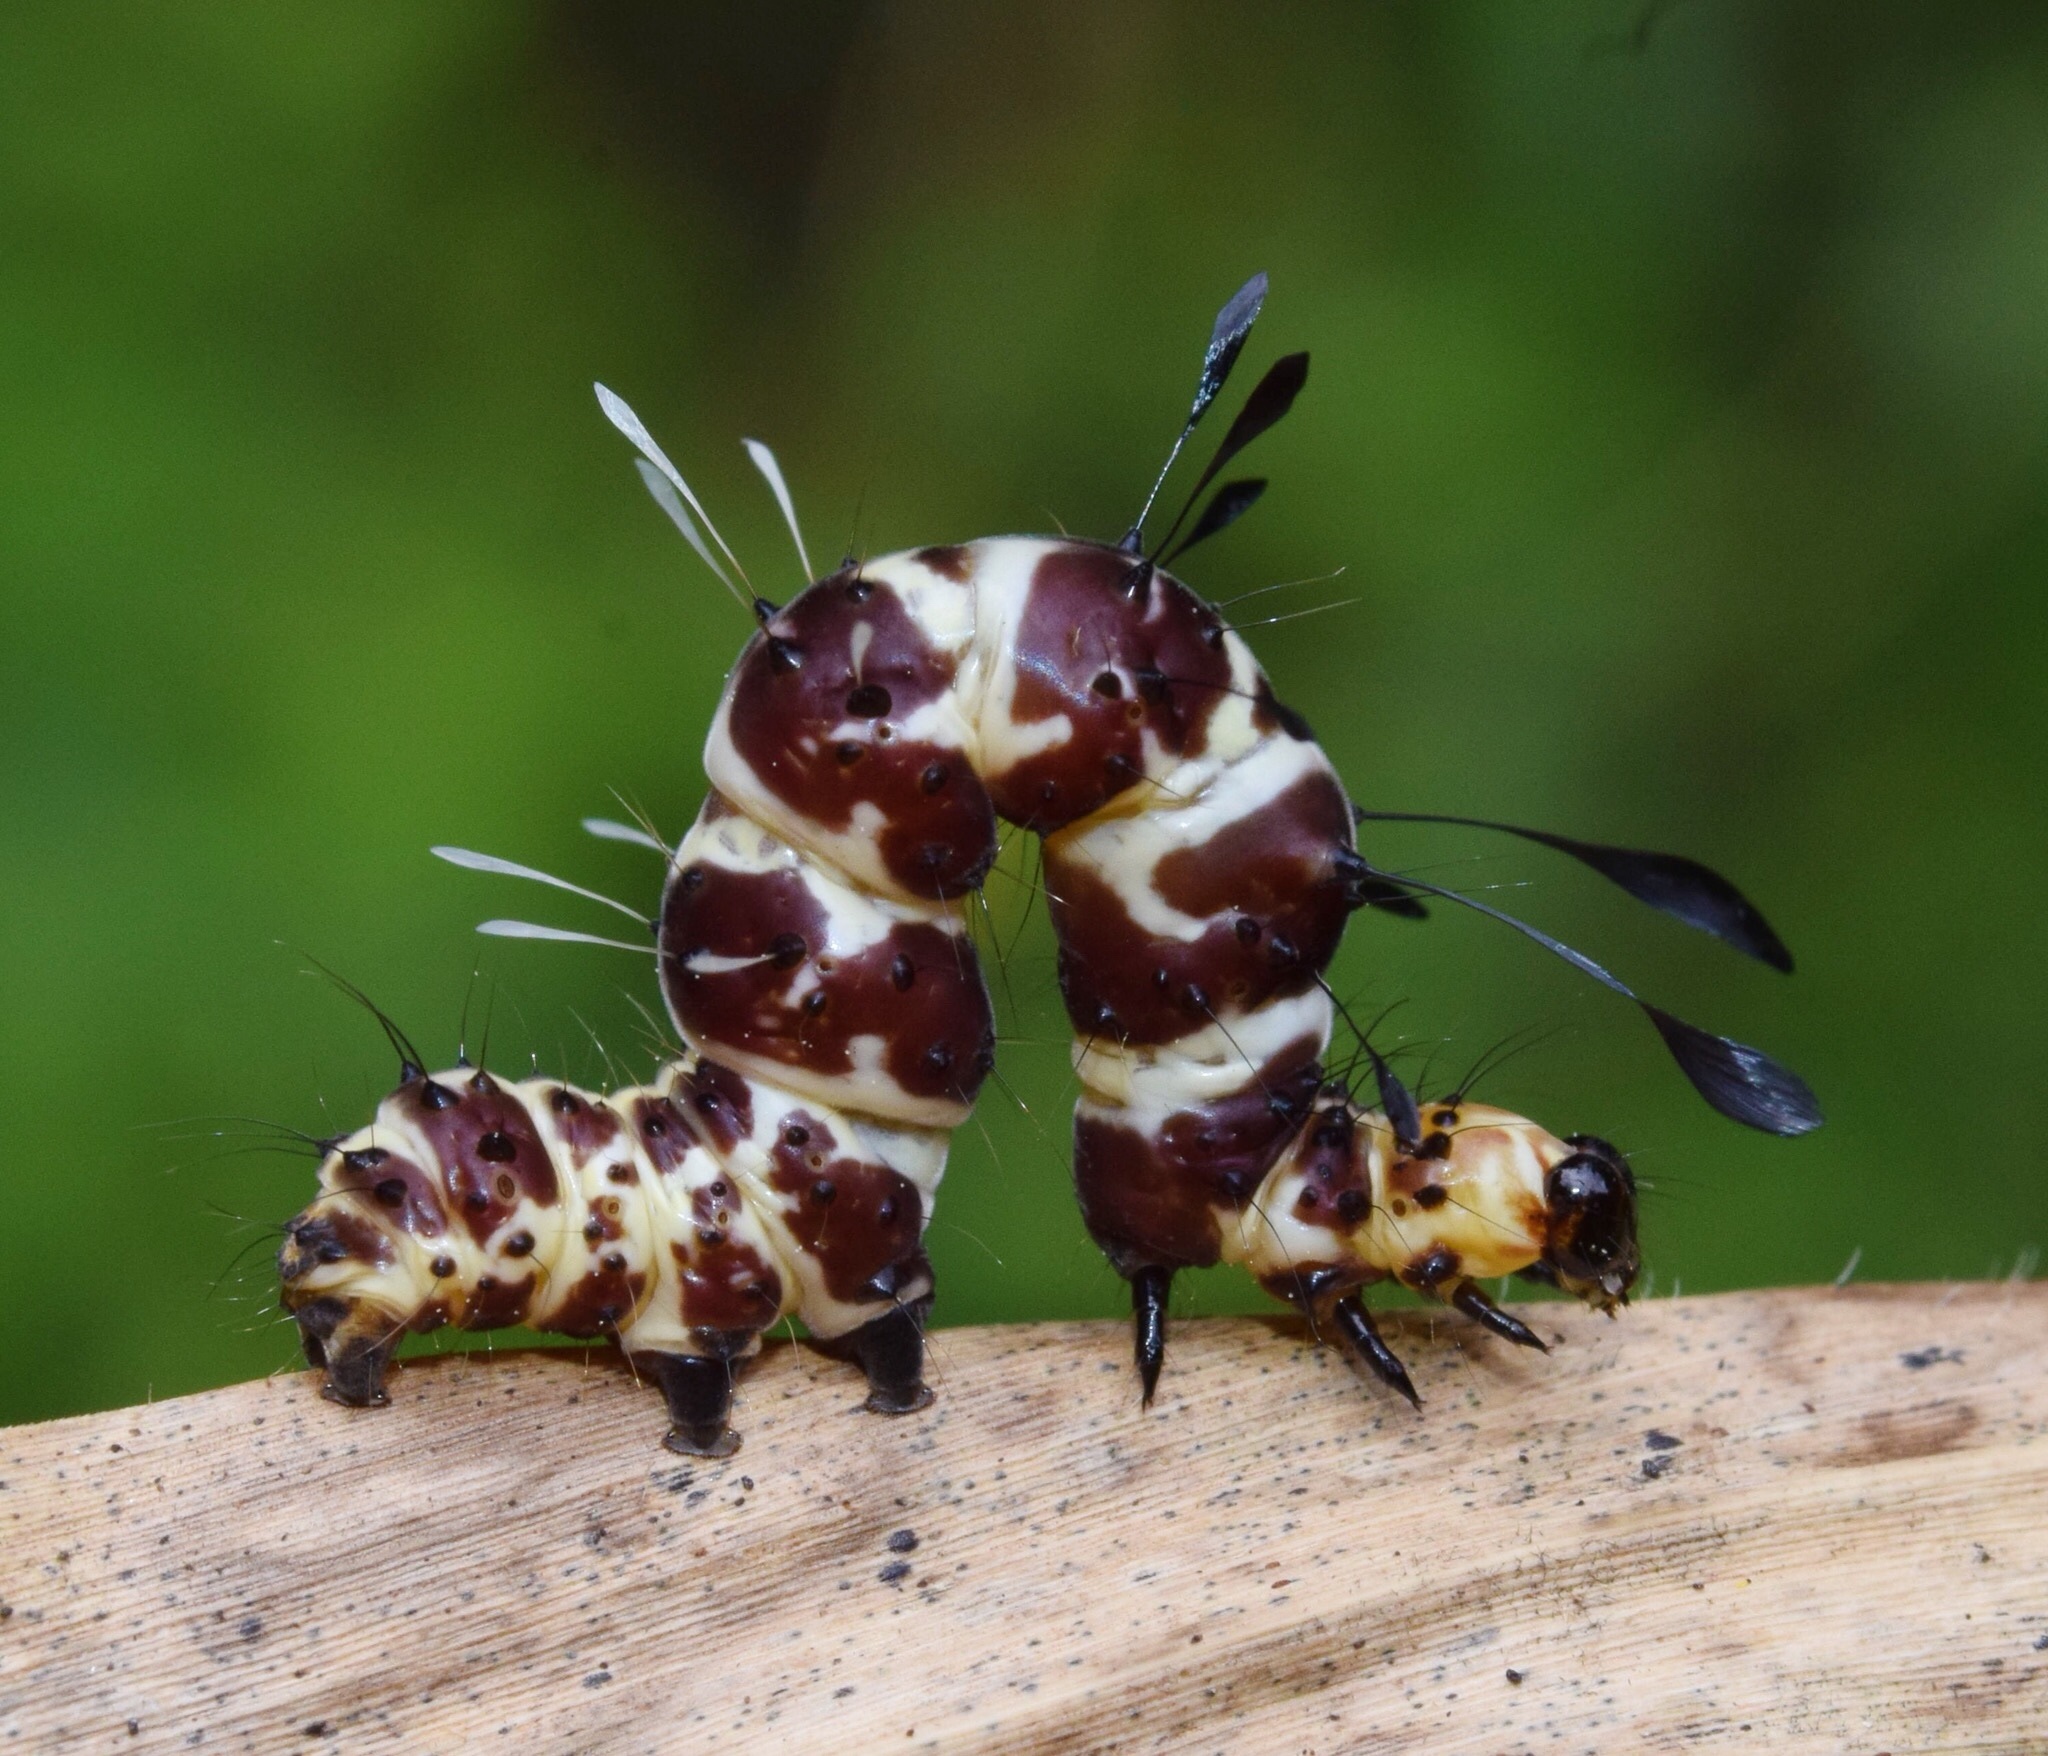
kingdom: Animalia
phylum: Arthropoda
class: Insecta
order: Lepidoptera
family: Erebidae
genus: Rhanidophora
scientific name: Rhanidophora cinctigutta
